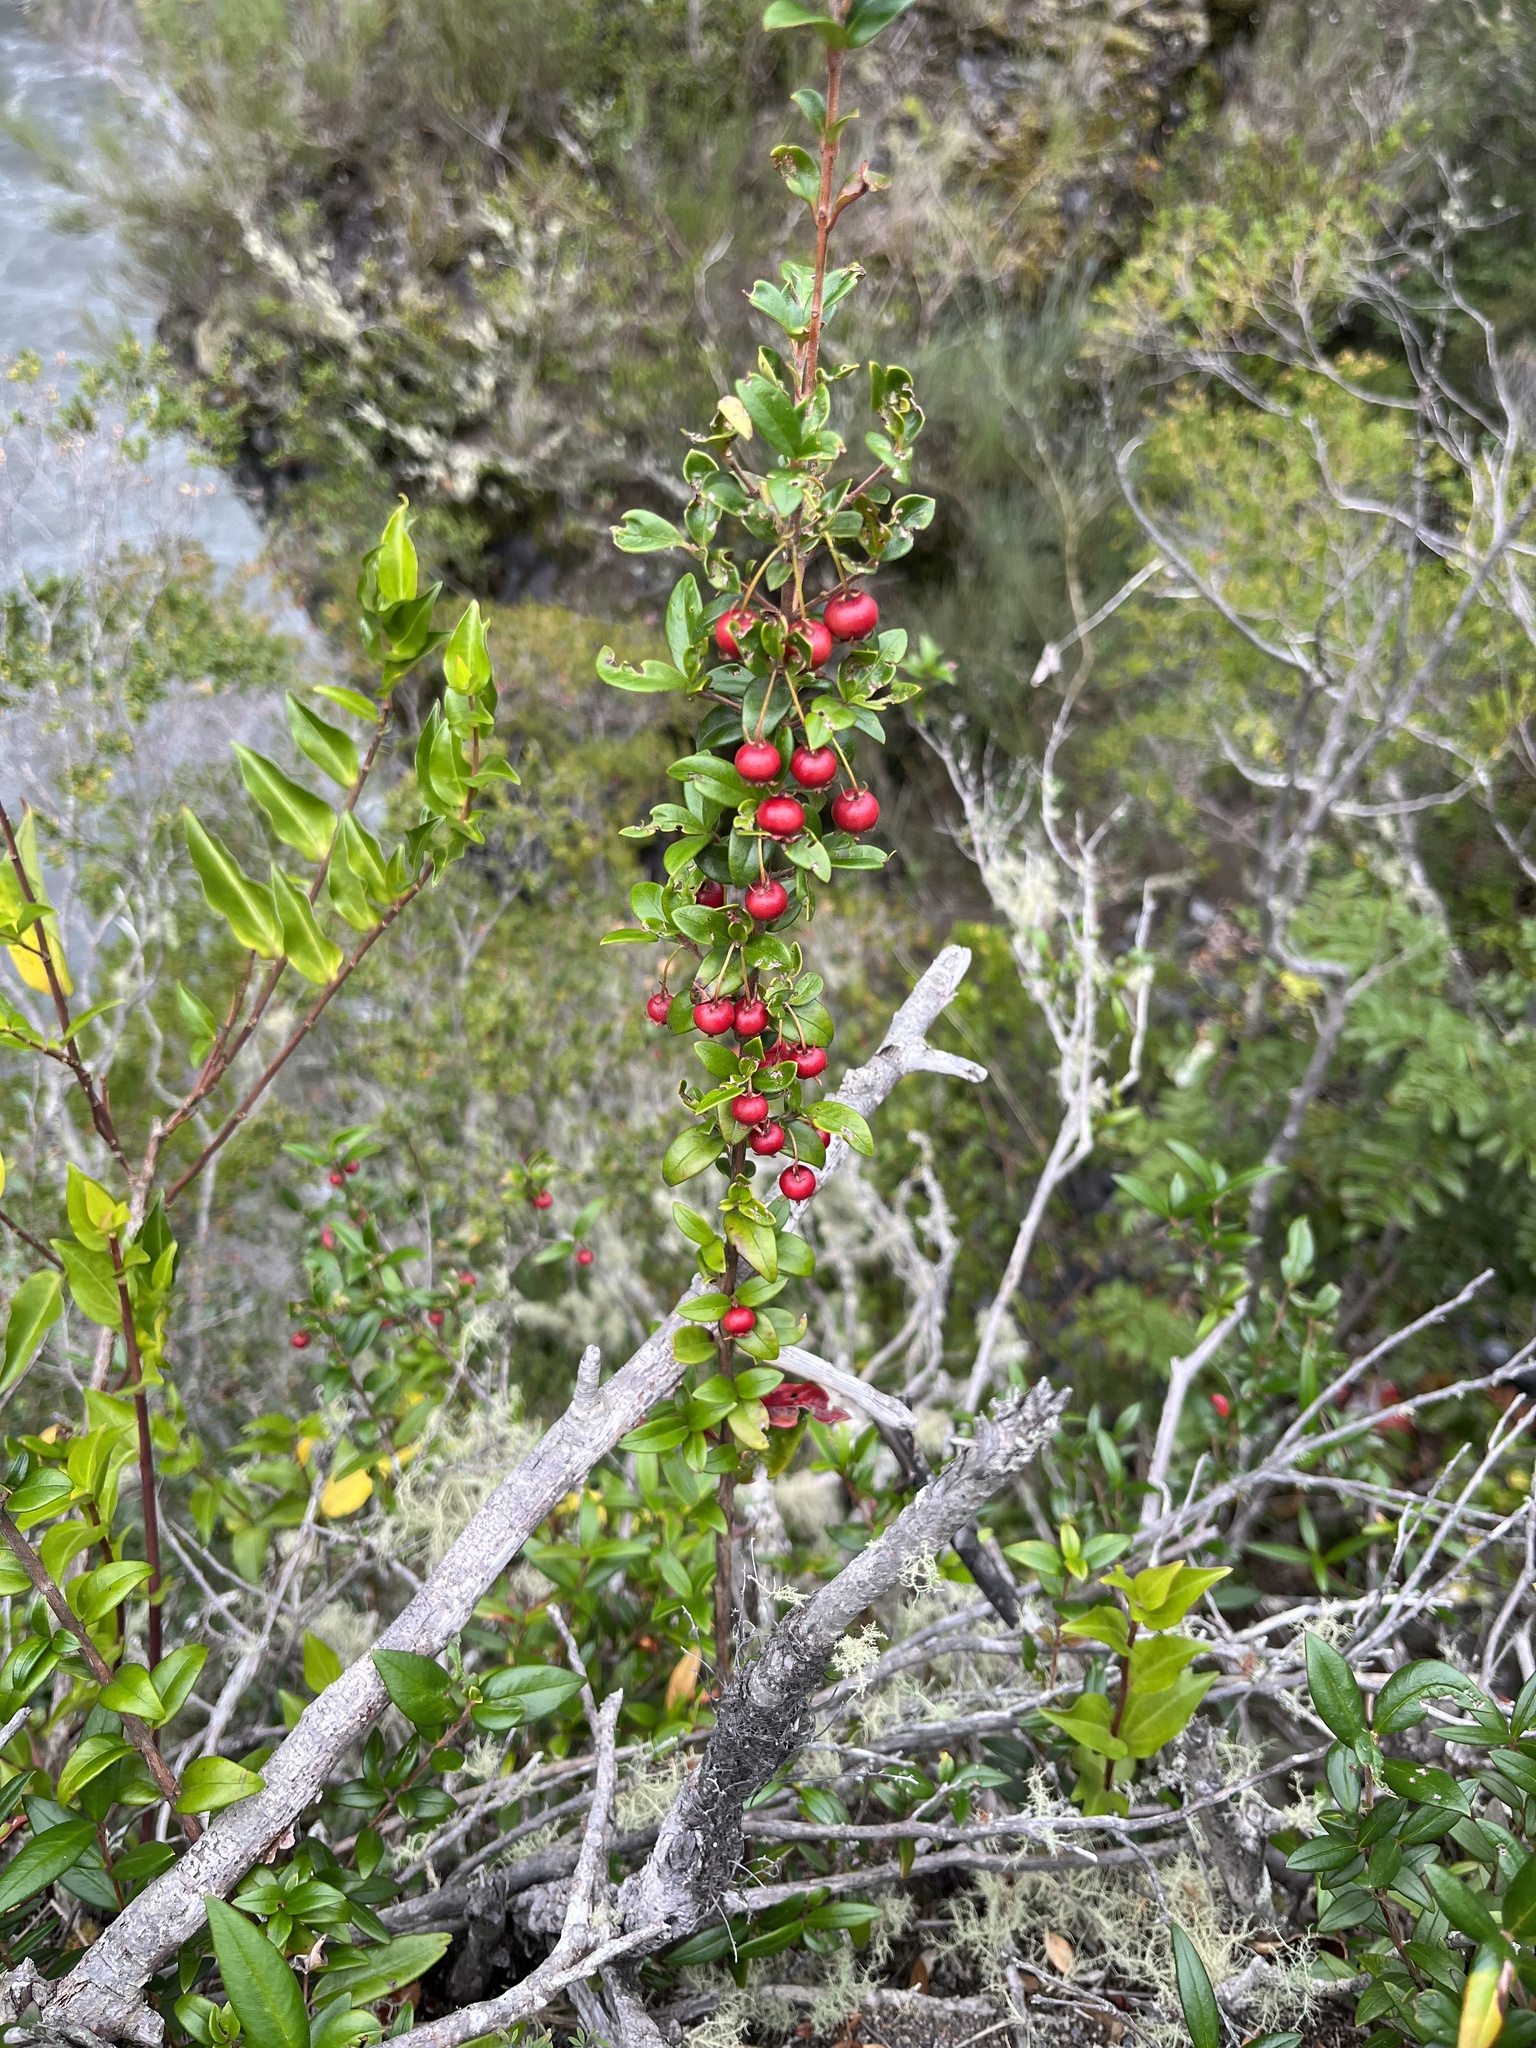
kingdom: Plantae
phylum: Tracheophyta
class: Magnoliopsida
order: Myrtales
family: Myrtaceae
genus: Ugni
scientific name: Ugni molinae
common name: Chilean-guava
